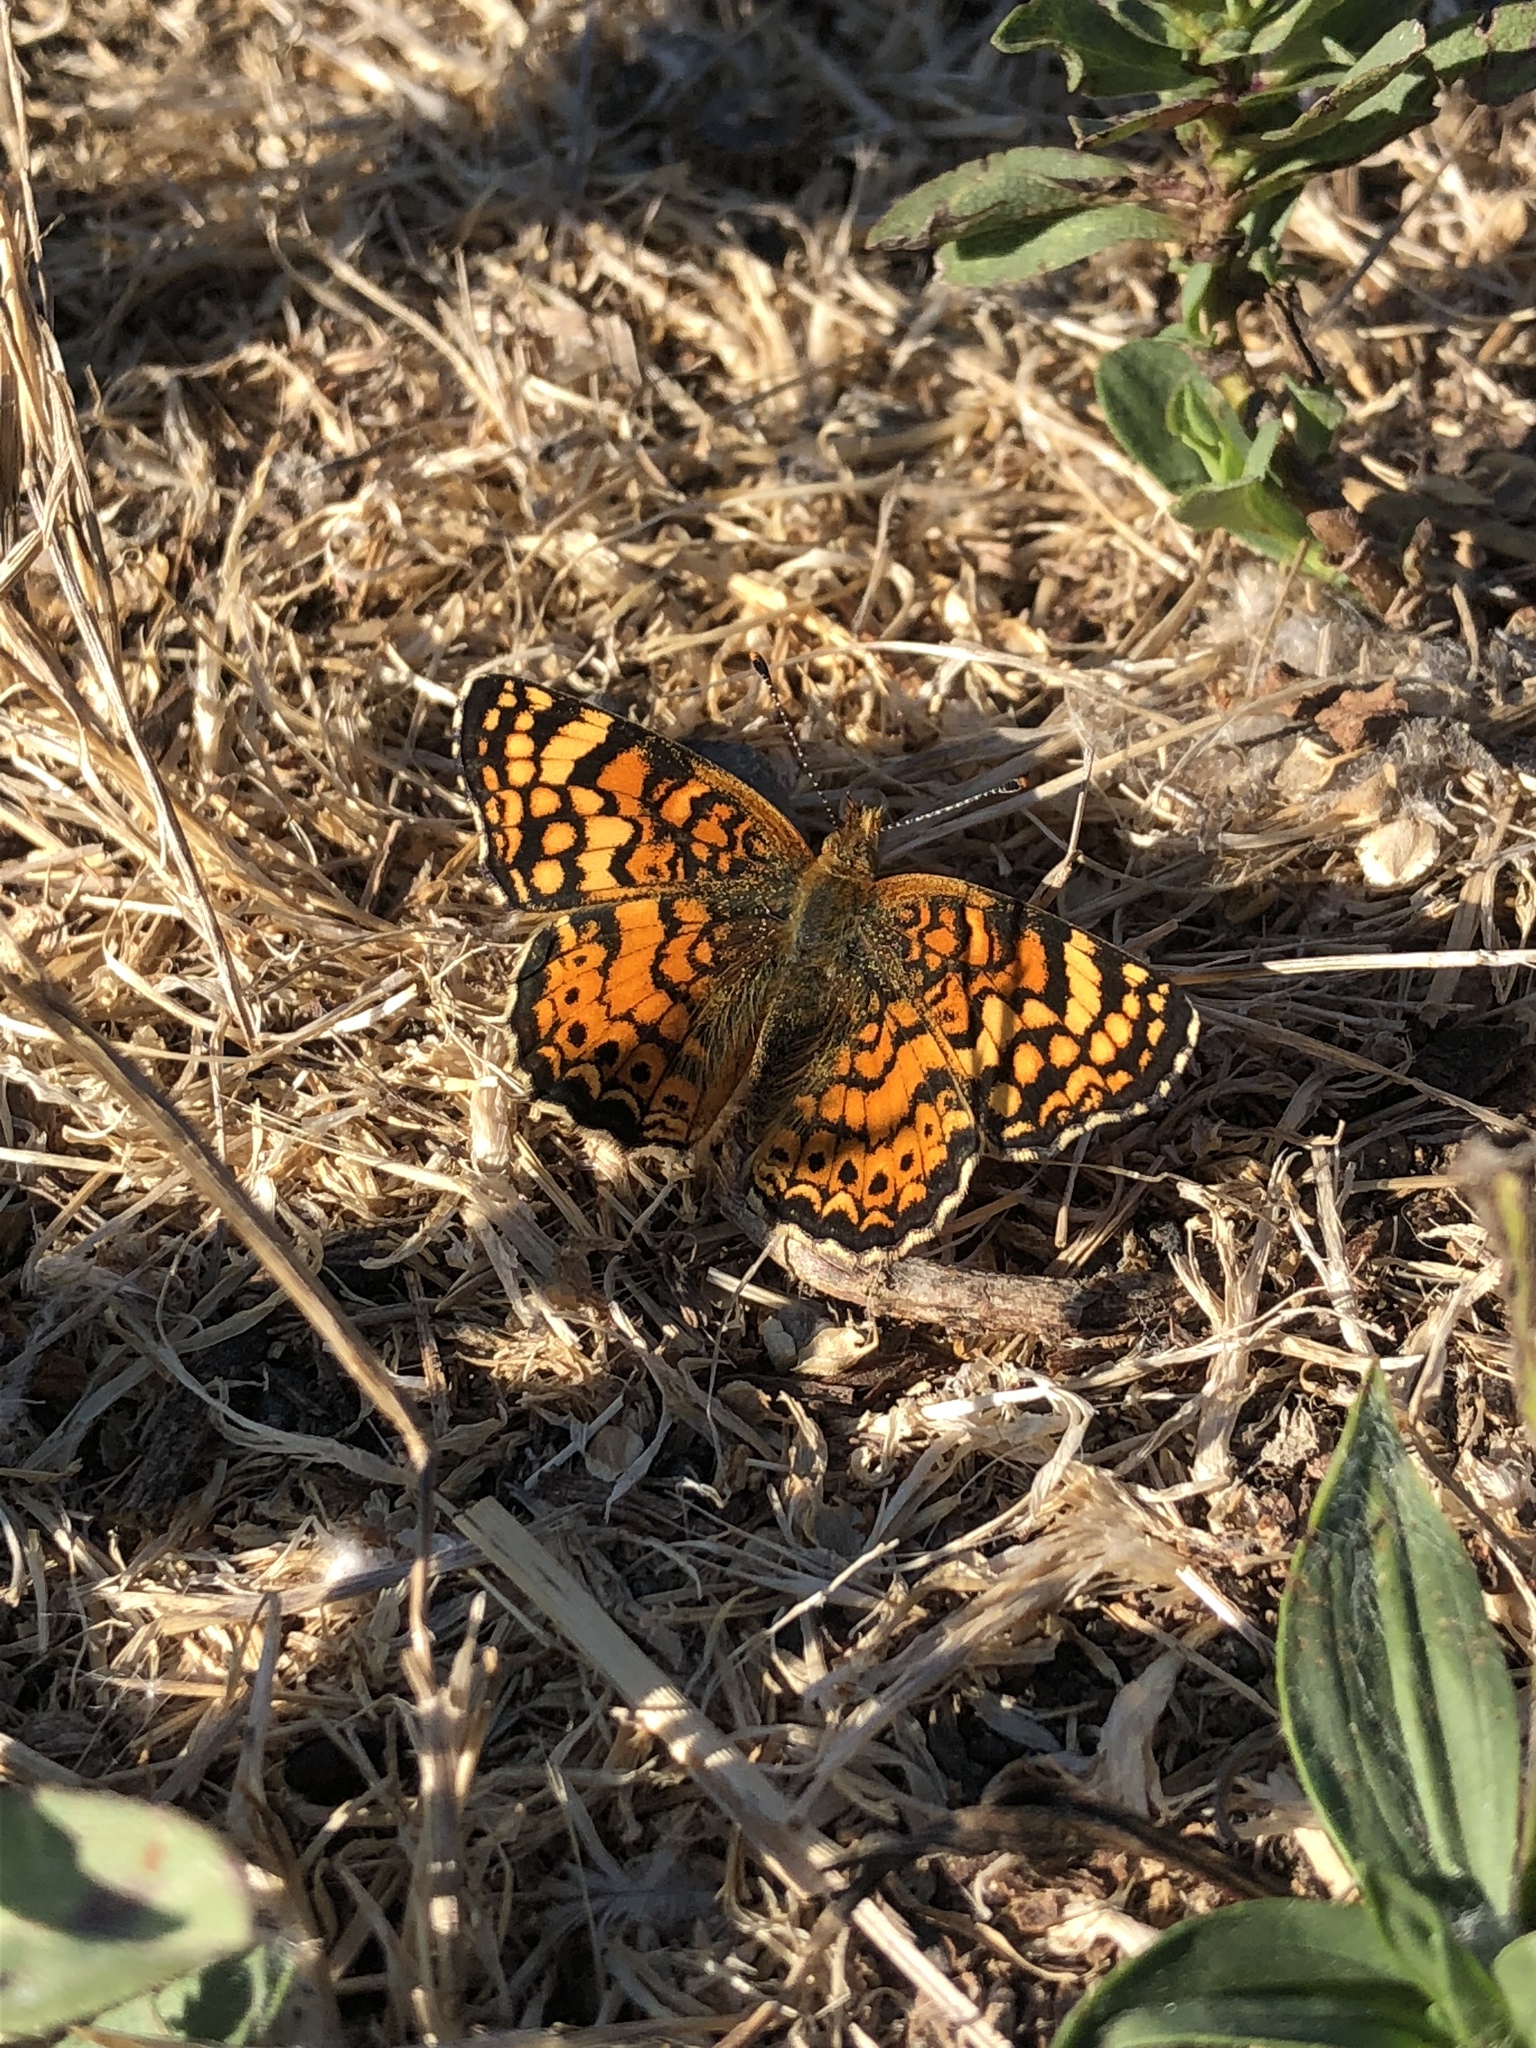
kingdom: Animalia
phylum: Arthropoda
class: Insecta
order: Lepidoptera
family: Nymphalidae
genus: Eresia
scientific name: Eresia aveyrona
